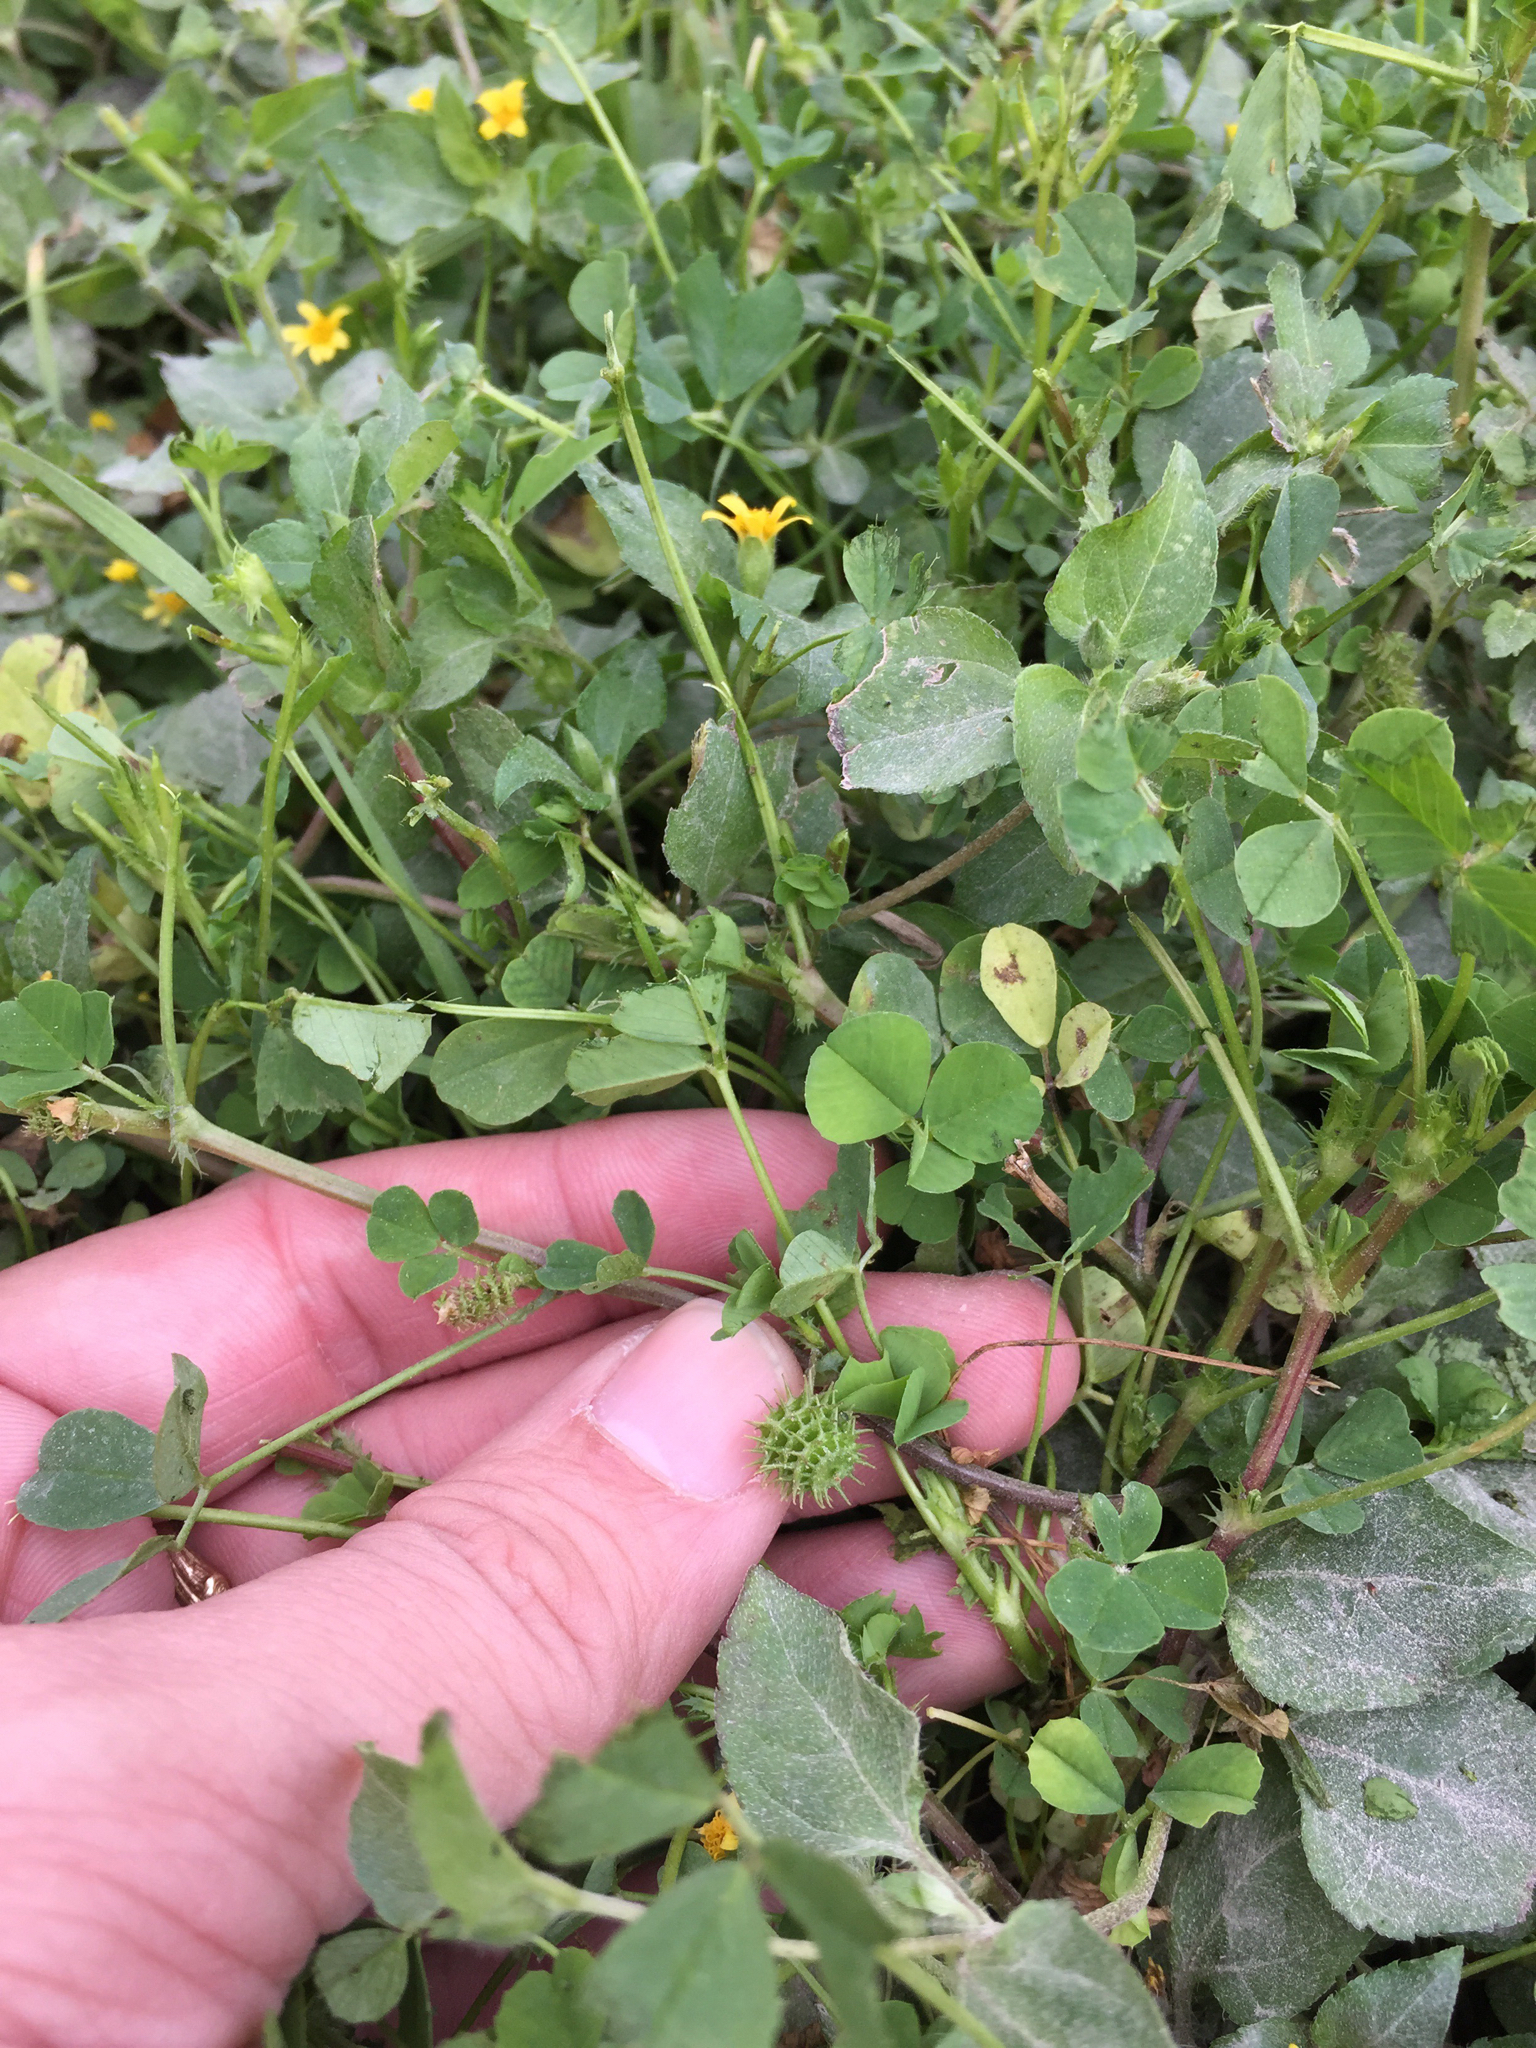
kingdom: Plantae
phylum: Tracheophyta
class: Magnoliopsida
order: Fabales
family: Fabaceae
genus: Medicago
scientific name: Medicago polymorpha
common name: Burclover
